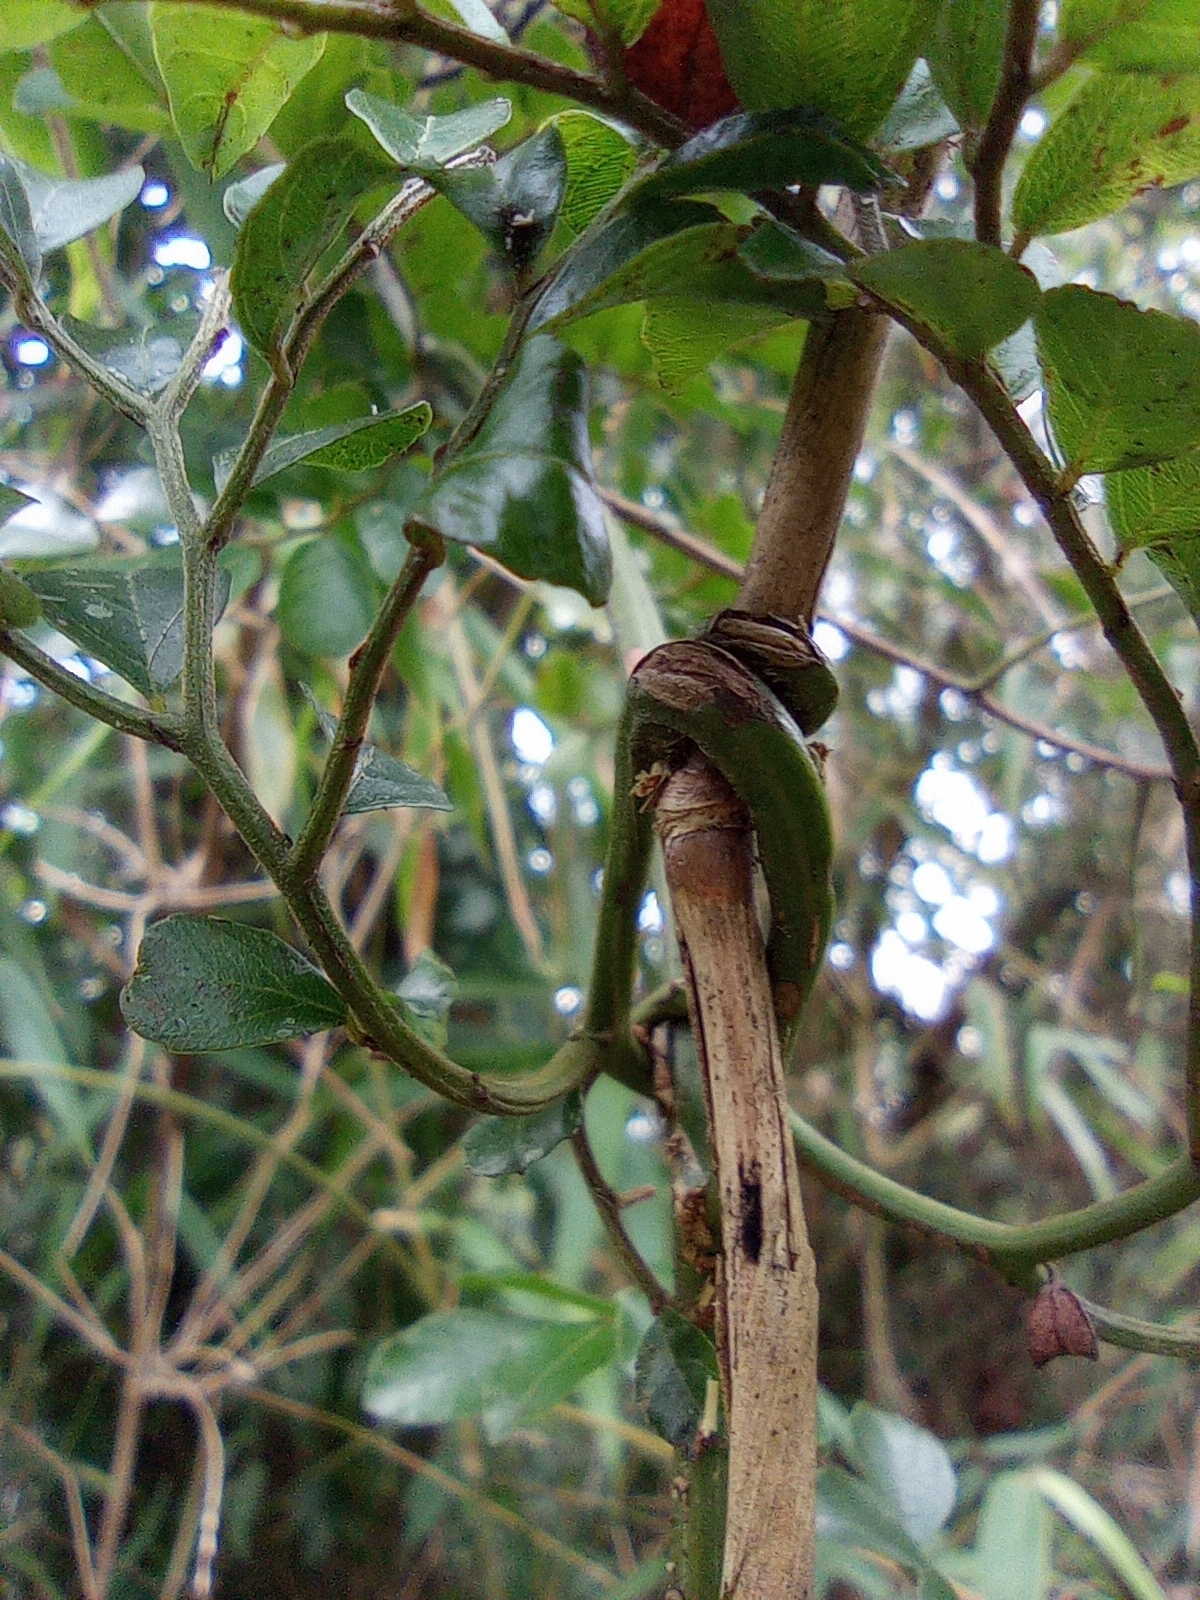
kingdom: Plantae
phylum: Tracheophyta
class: Magnoliopsida
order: Rosales
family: Rhamnaceae
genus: Ventilago
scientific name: Ventilago elegans
